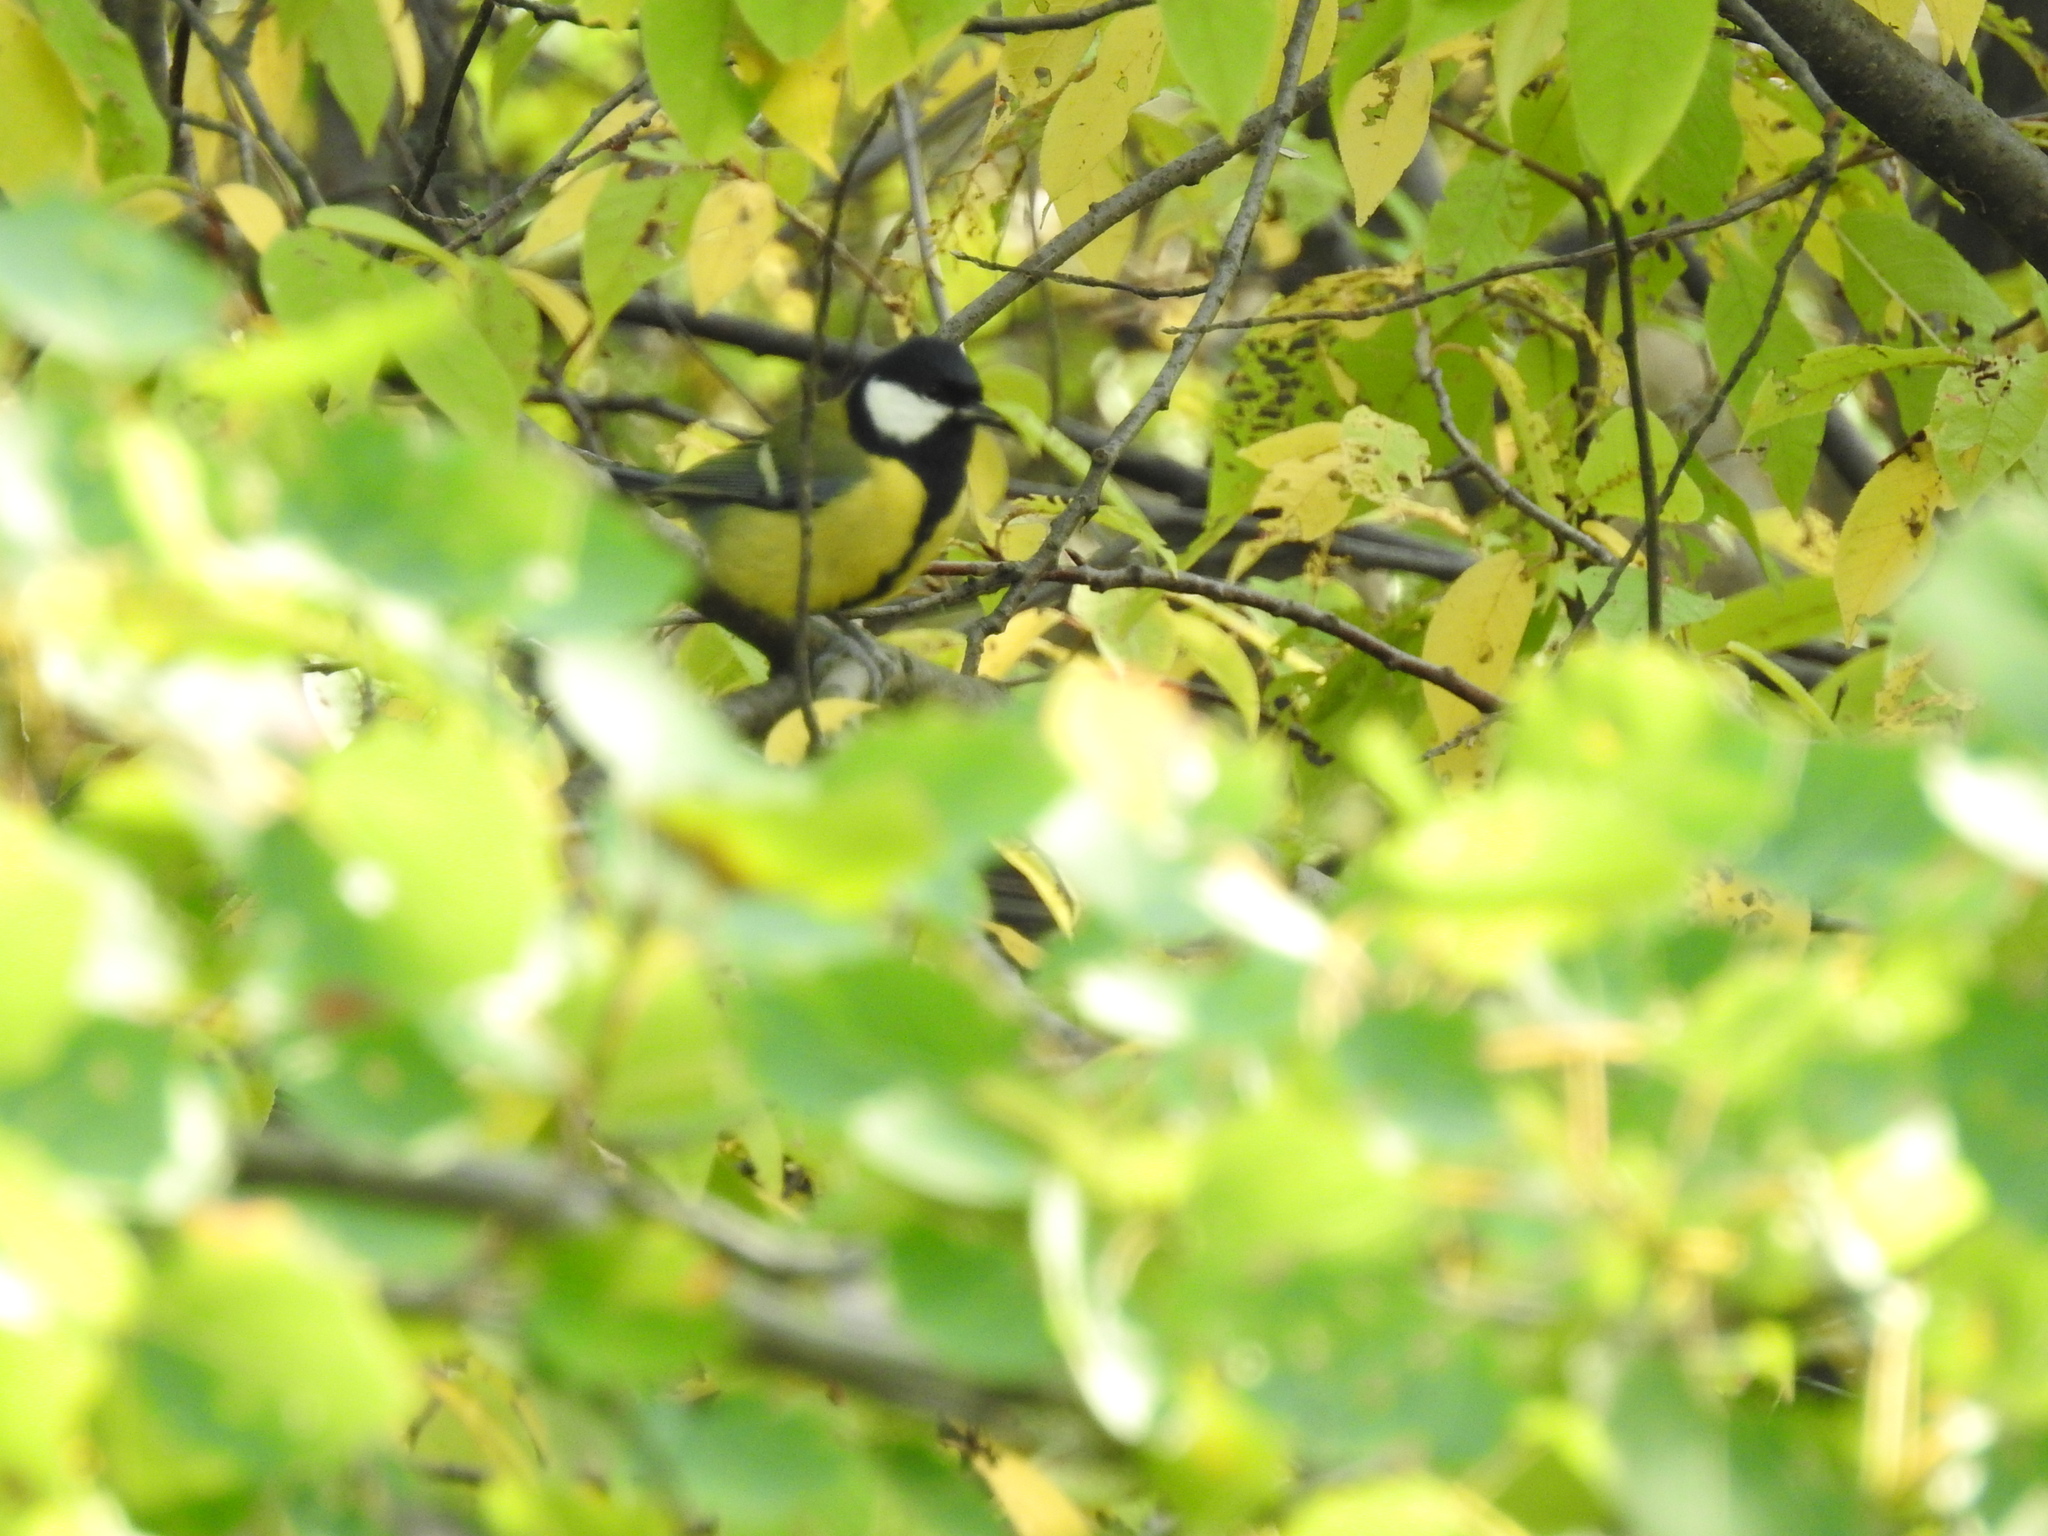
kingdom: Animalia
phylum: Chordata
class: Aves
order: Passeriformes
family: Paridae
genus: Parus
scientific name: Parus major
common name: Great tit
